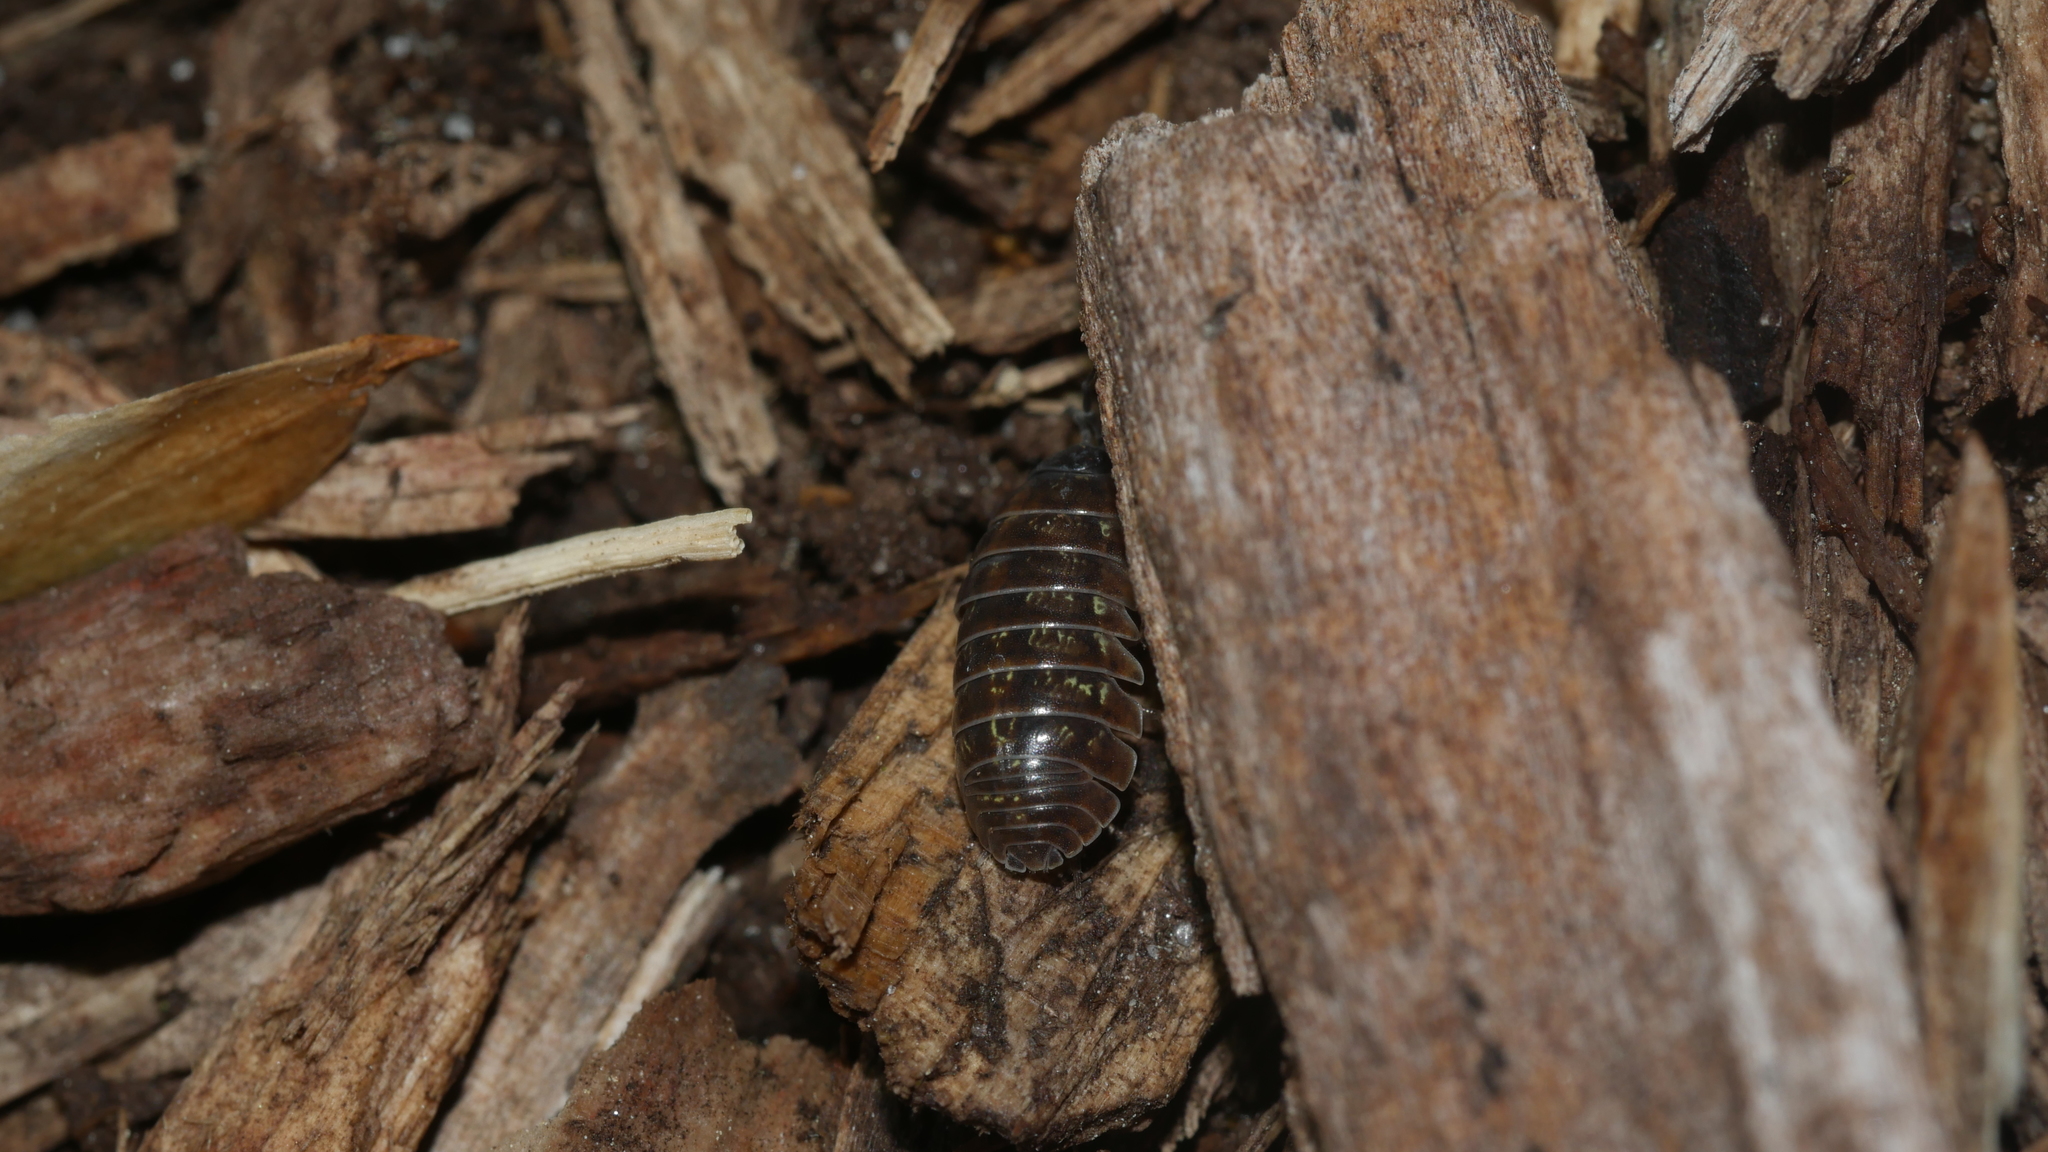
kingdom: Animalia
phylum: Arthropoda
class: Malacostraca
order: Isopoda
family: Armadillidiidae
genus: Armadillidium
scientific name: Armadillidium vulgare
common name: Common pill woodlouse
